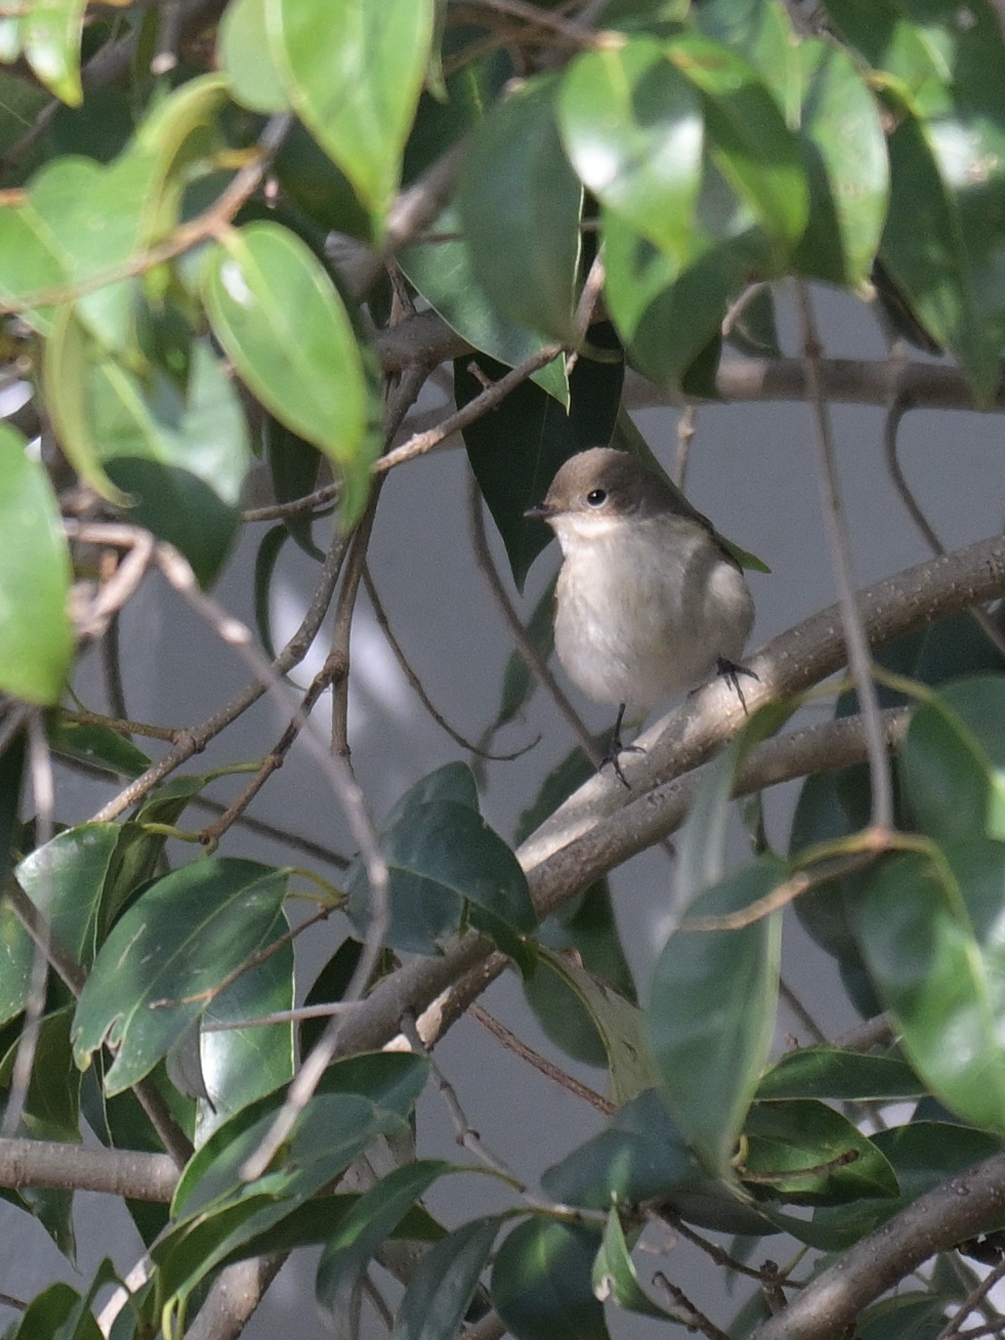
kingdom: Animalia
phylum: Chordata
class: Aves
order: Passeriformes
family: Muscicapidae
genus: Ficedula
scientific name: Ficedula hypoleuca
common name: European pied flycatcher
